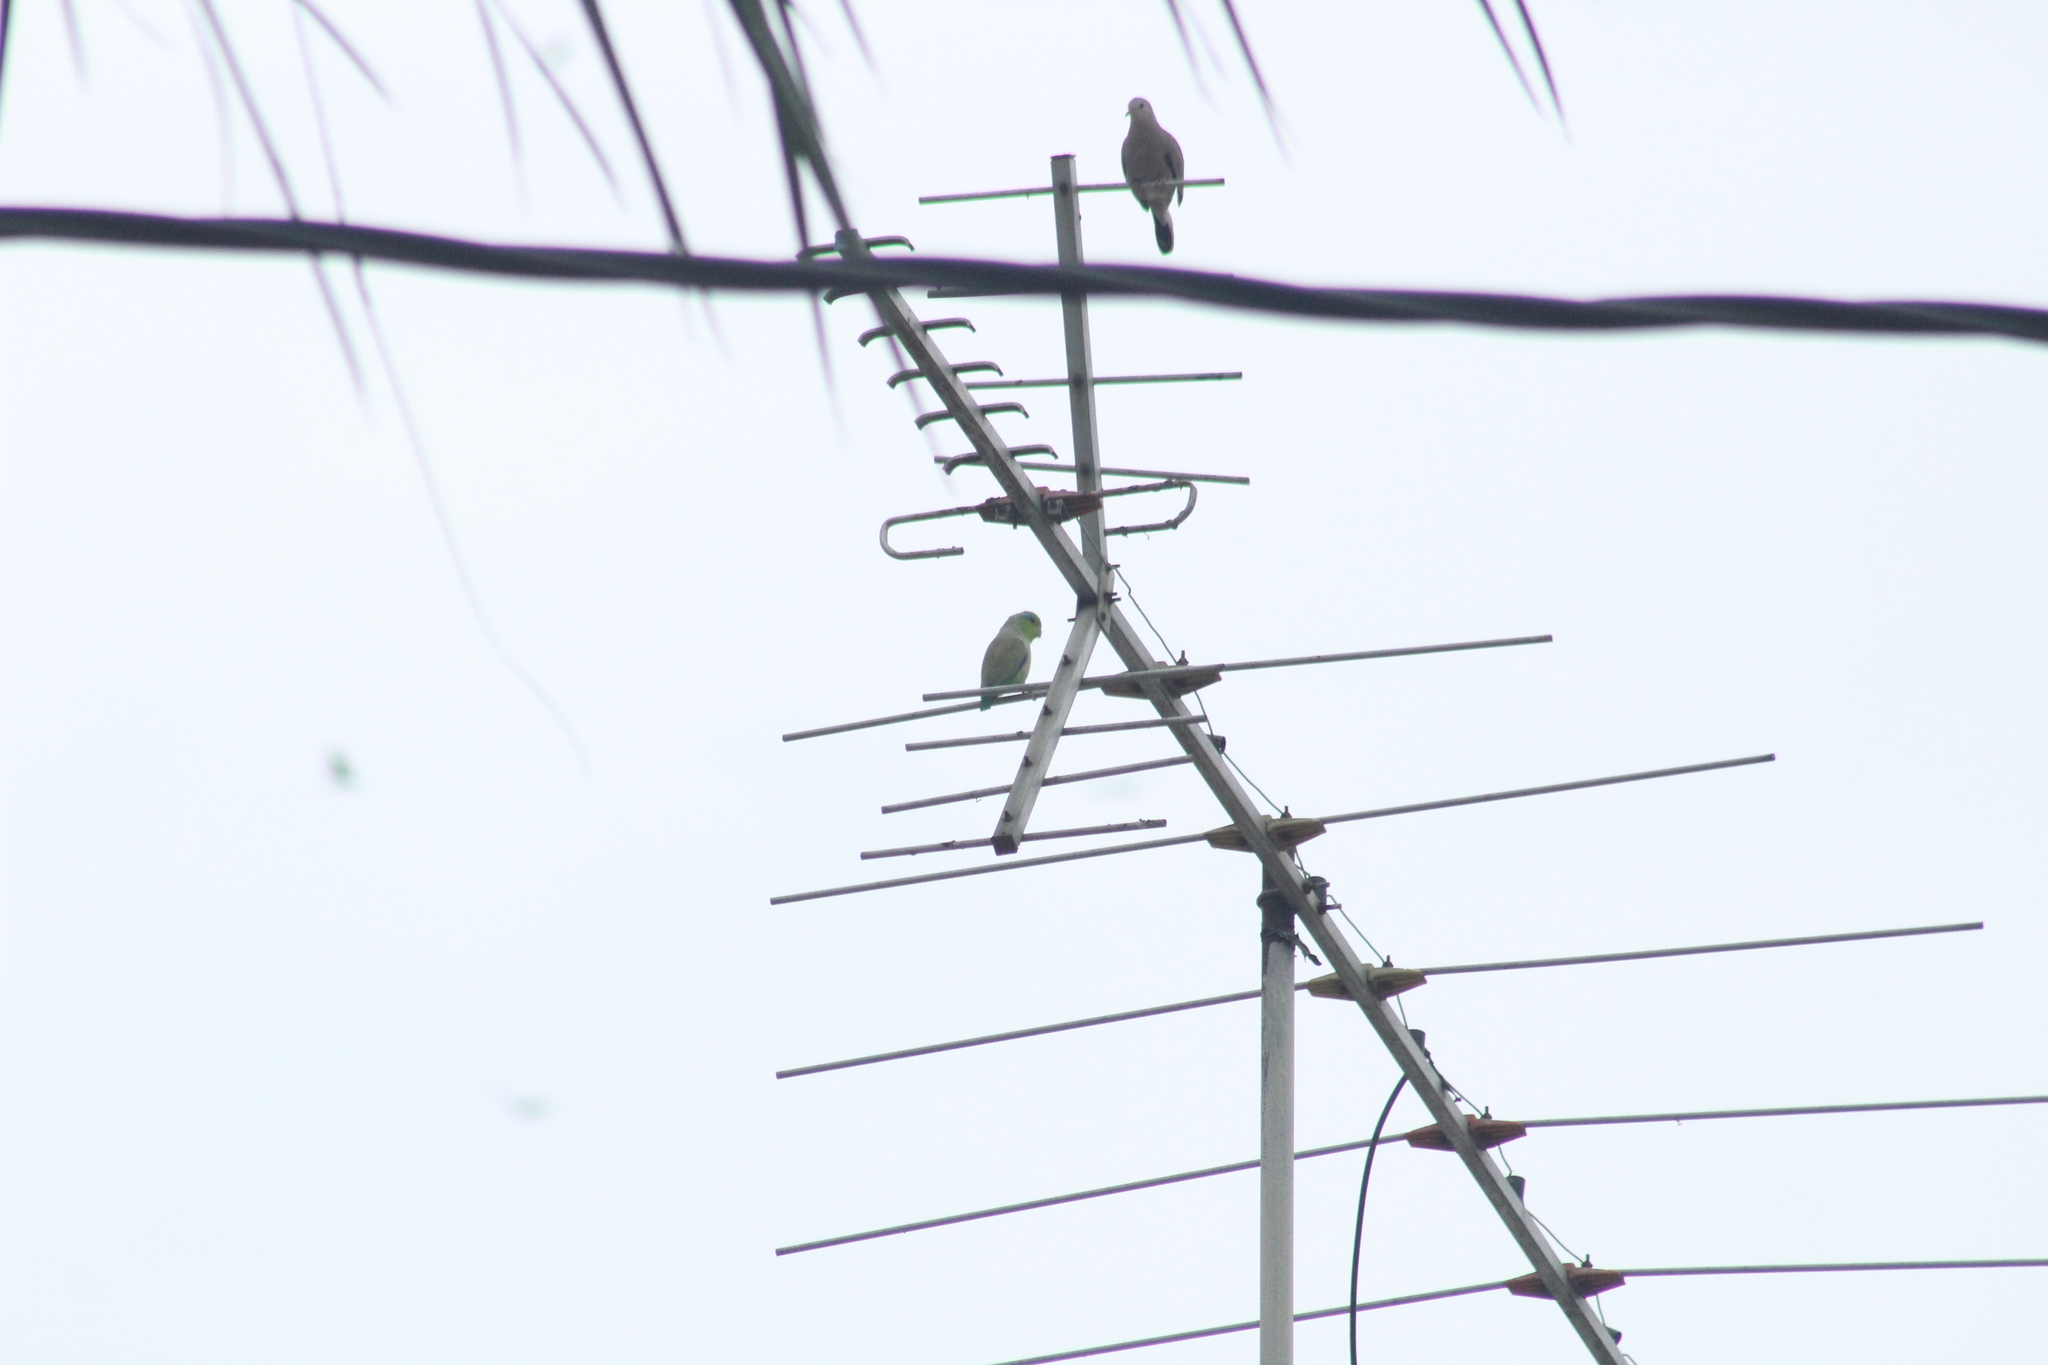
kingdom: Animalia
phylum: Chordata
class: Aves
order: Psittaciformes
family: Psittacidae
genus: Forpus
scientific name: Forpus coelestis
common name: Pacific parrotlet
